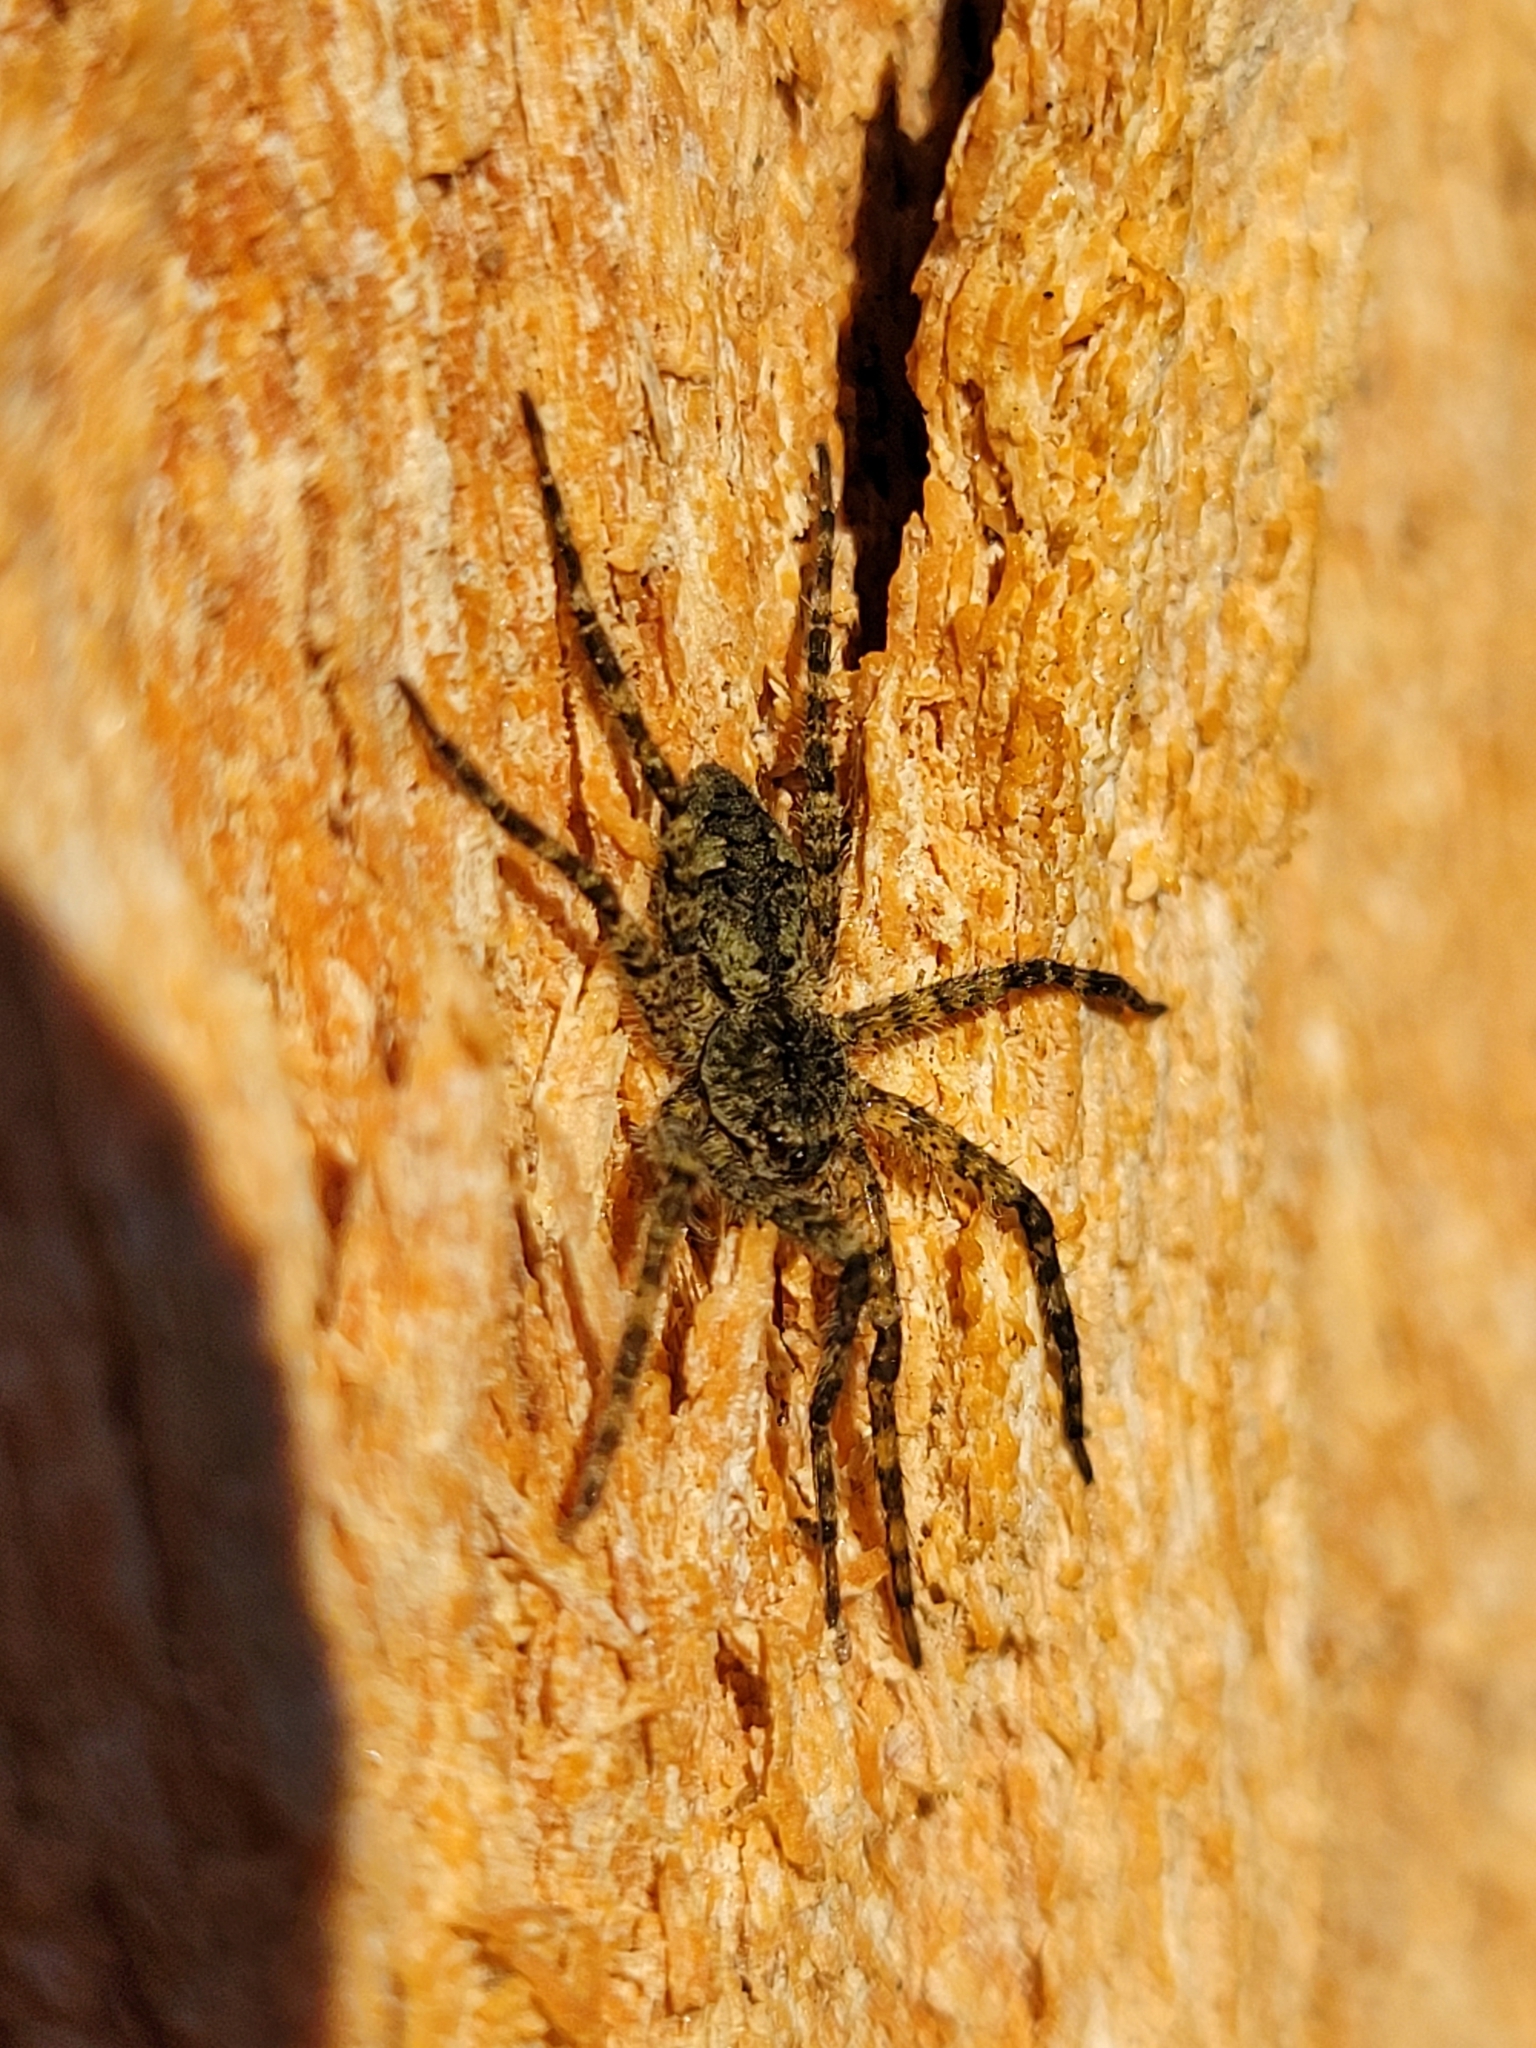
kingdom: Animalia
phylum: Arthropoda
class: Arachnida
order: Araneae
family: Pisauridae
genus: Dolomedes
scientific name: Dolomedes albineus
